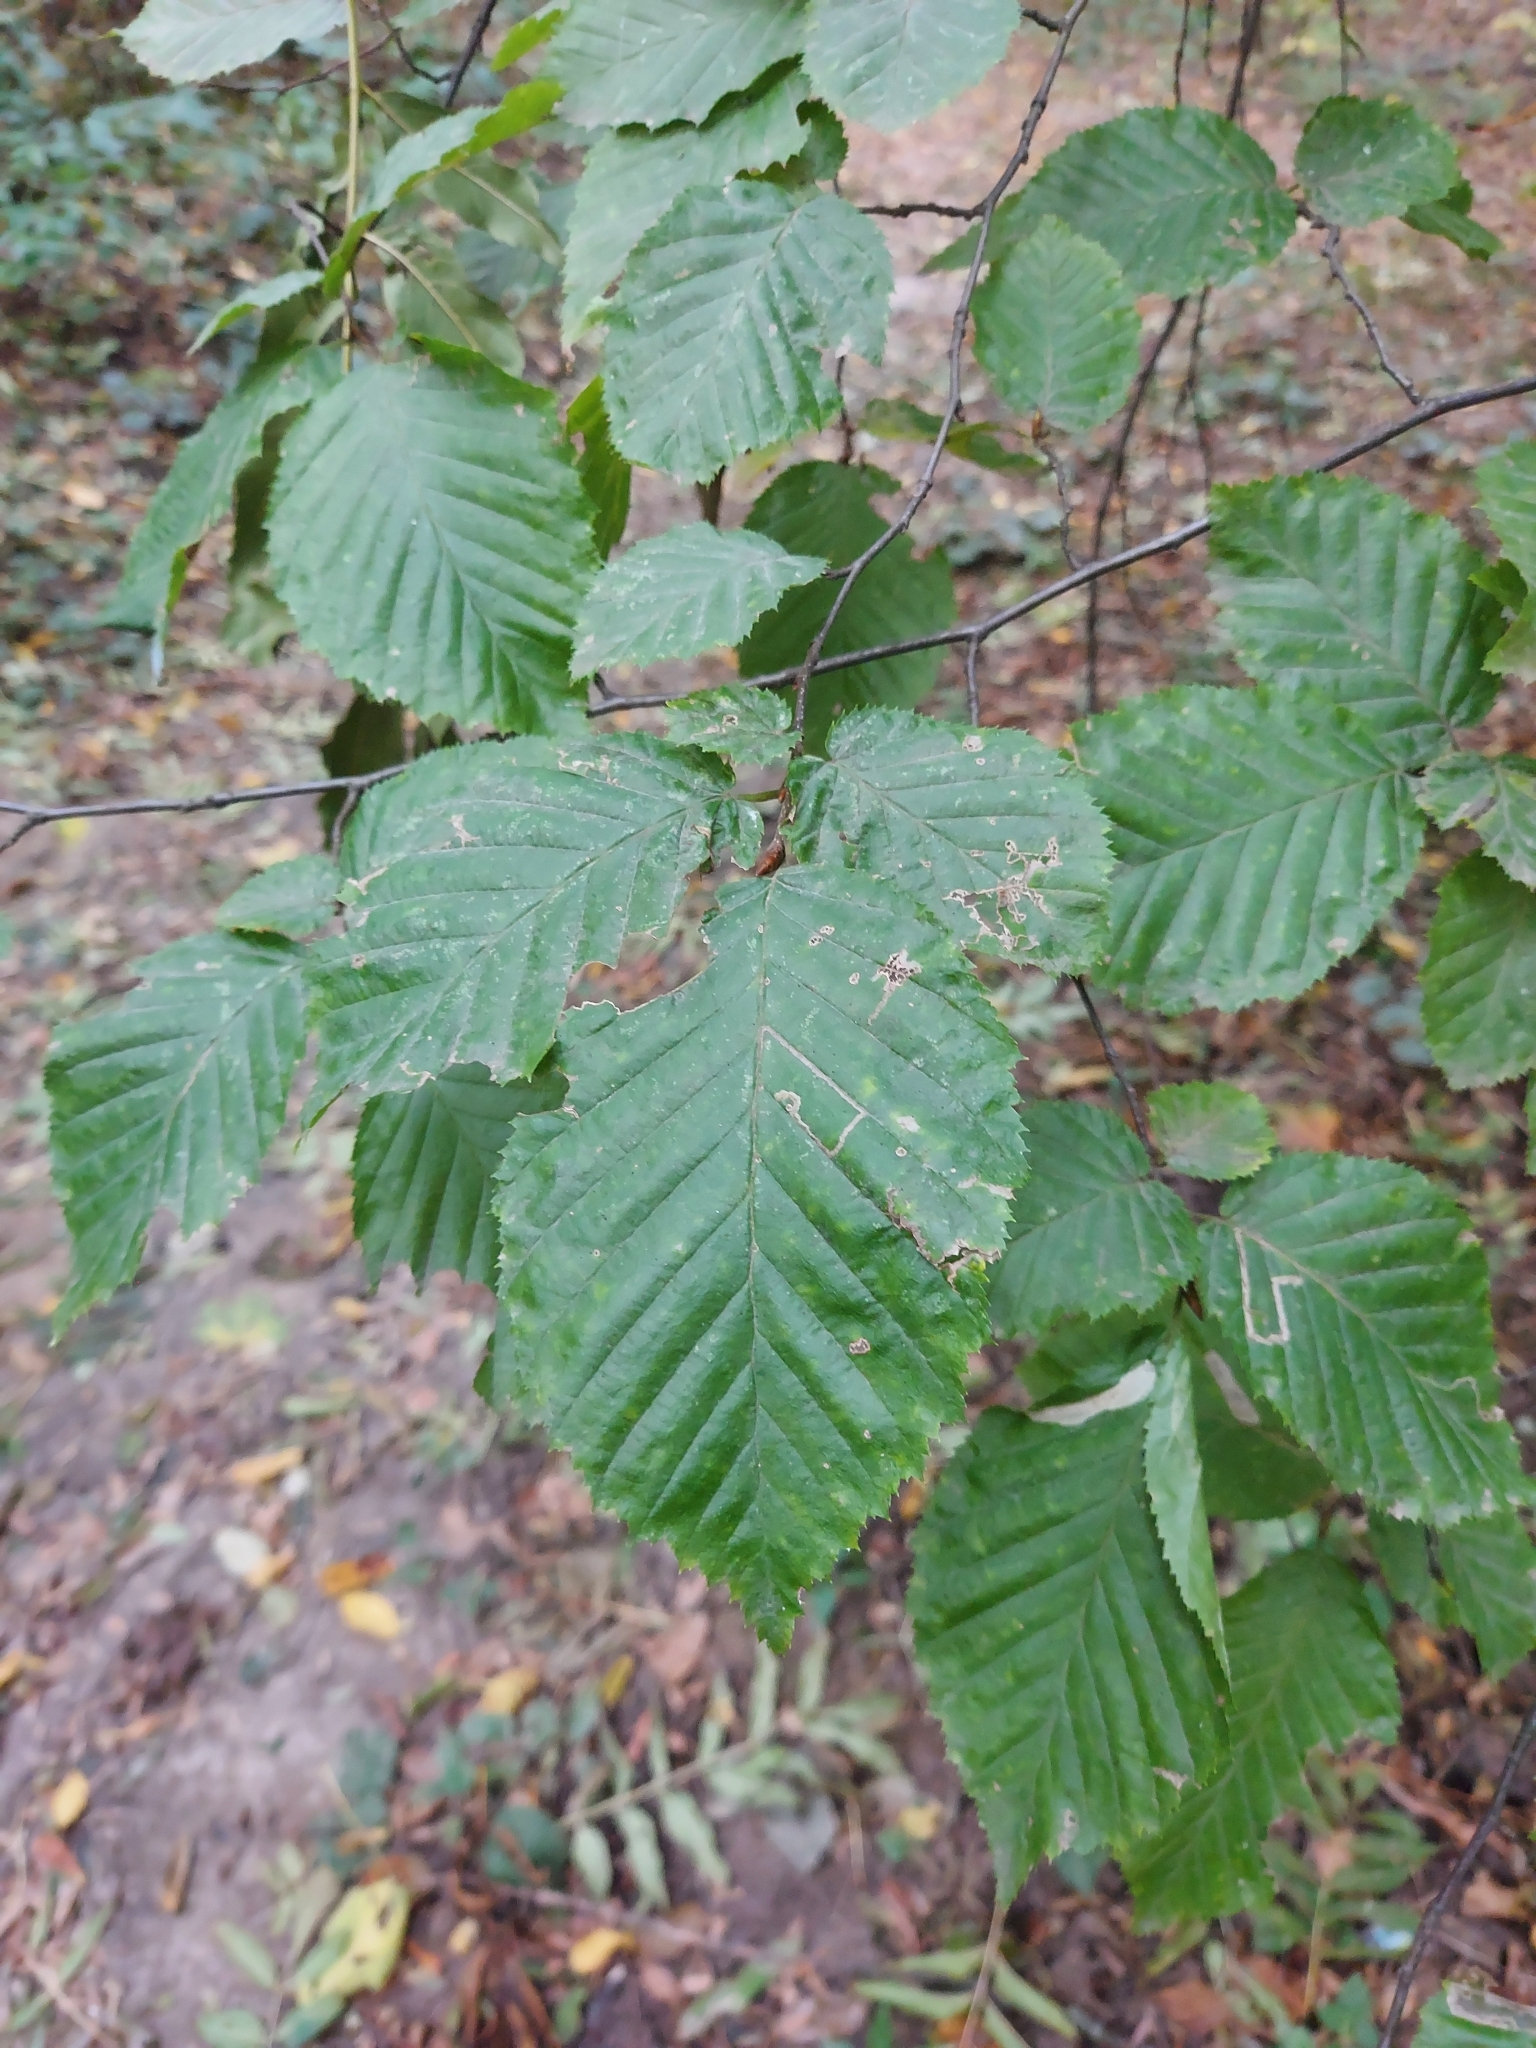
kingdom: Plantae
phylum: Tracheophyta
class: Magnoliopsida
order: Fagales
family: Betulaceae
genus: Carpinus
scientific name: Carpinus betulus
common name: Hornbeam
